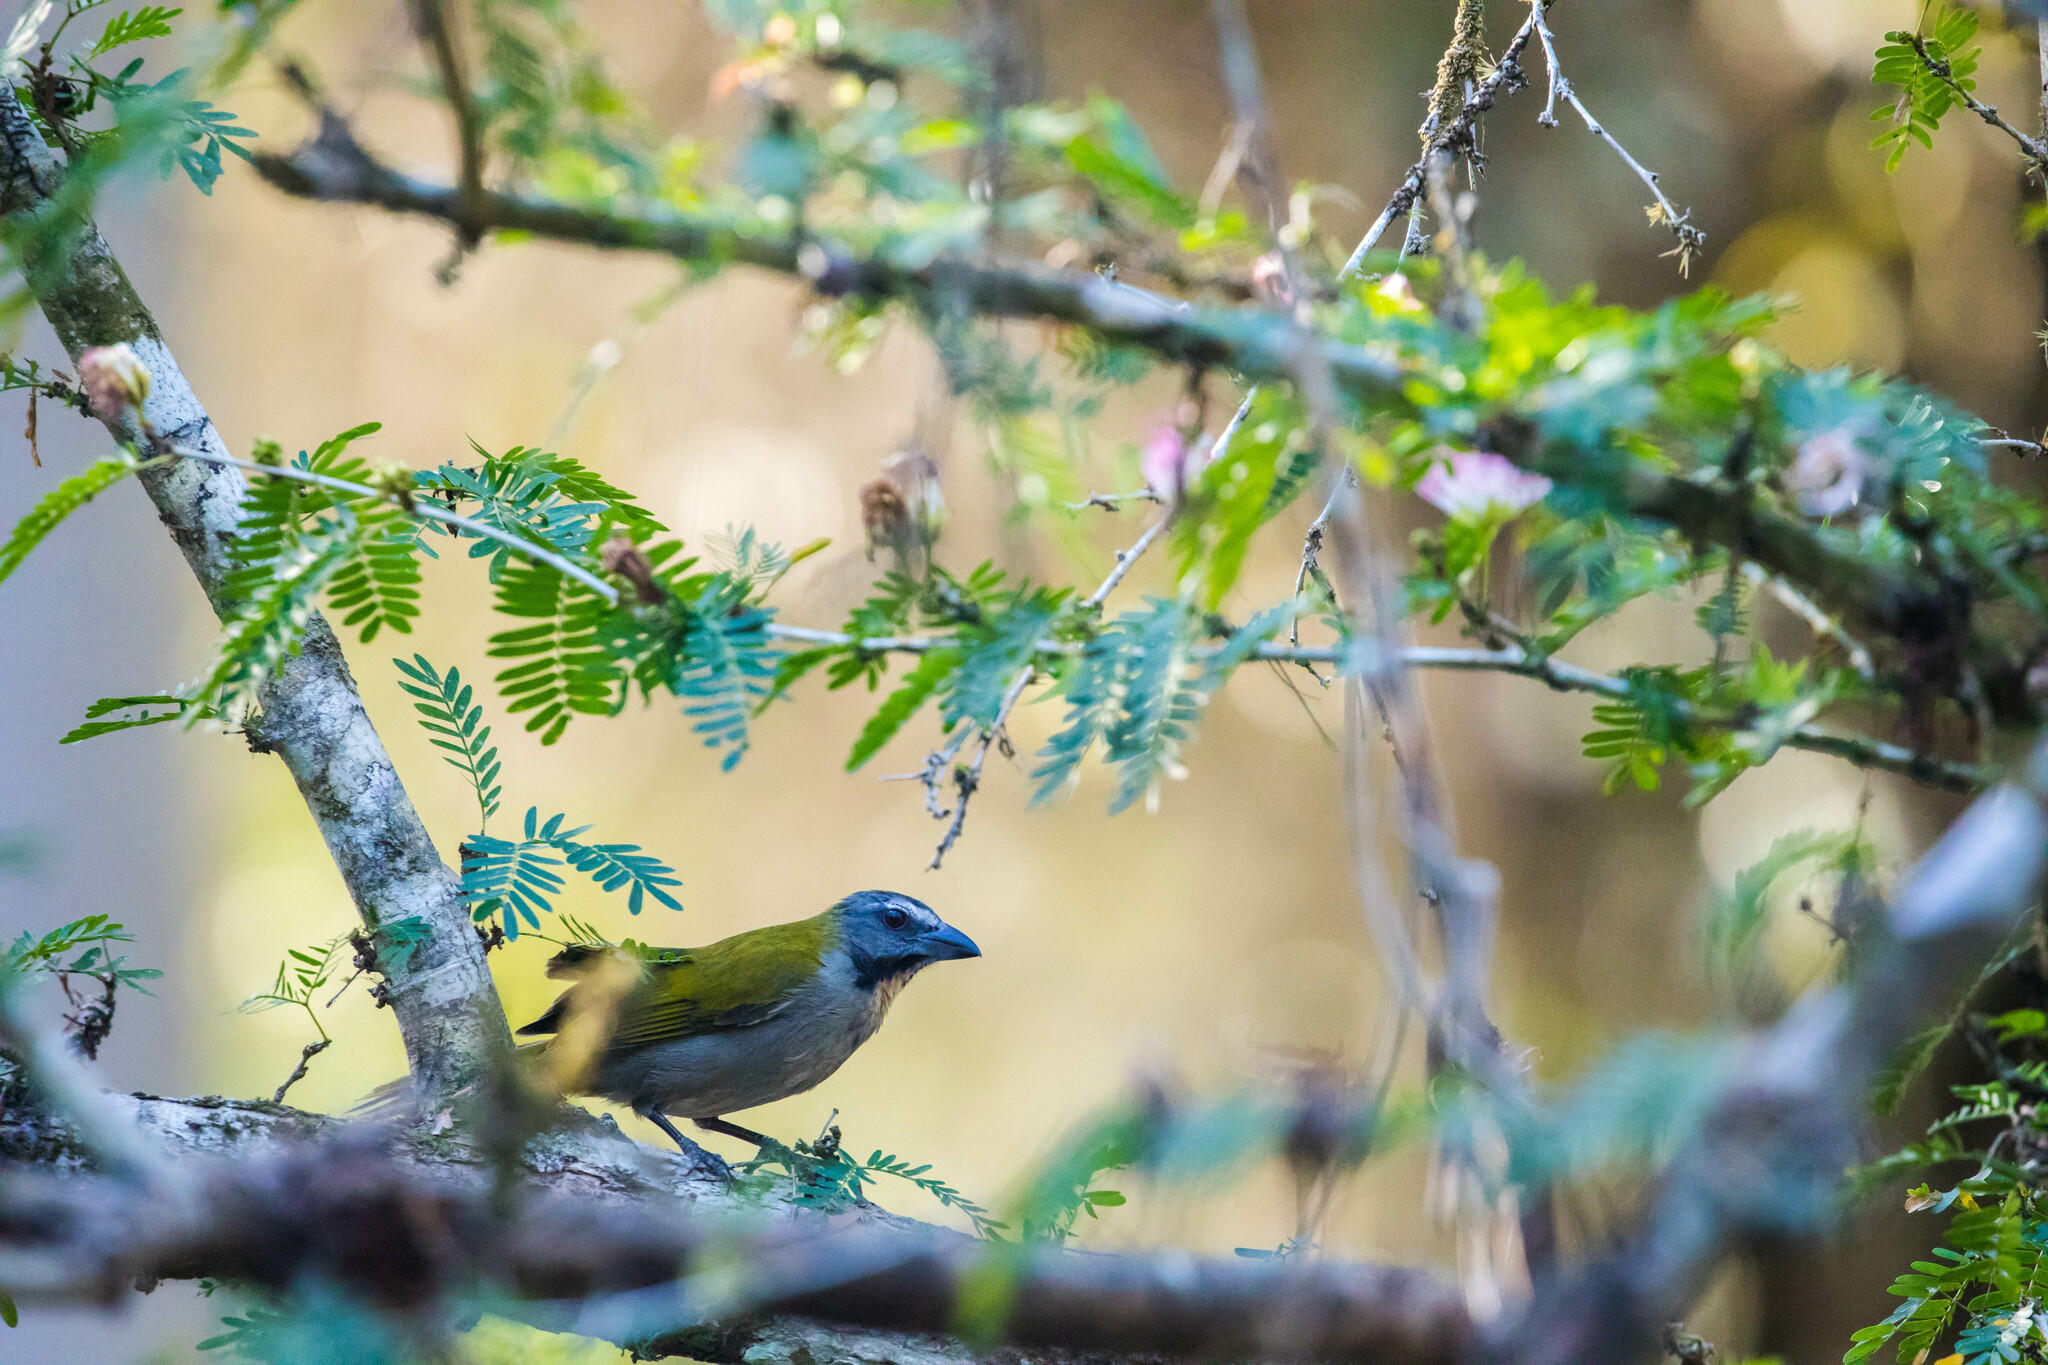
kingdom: Animalia
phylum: Chordata
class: Aves
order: Passeriformes
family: Thraupidae
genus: Saltator
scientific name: Saltator maximus
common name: Buff-throated saltator
